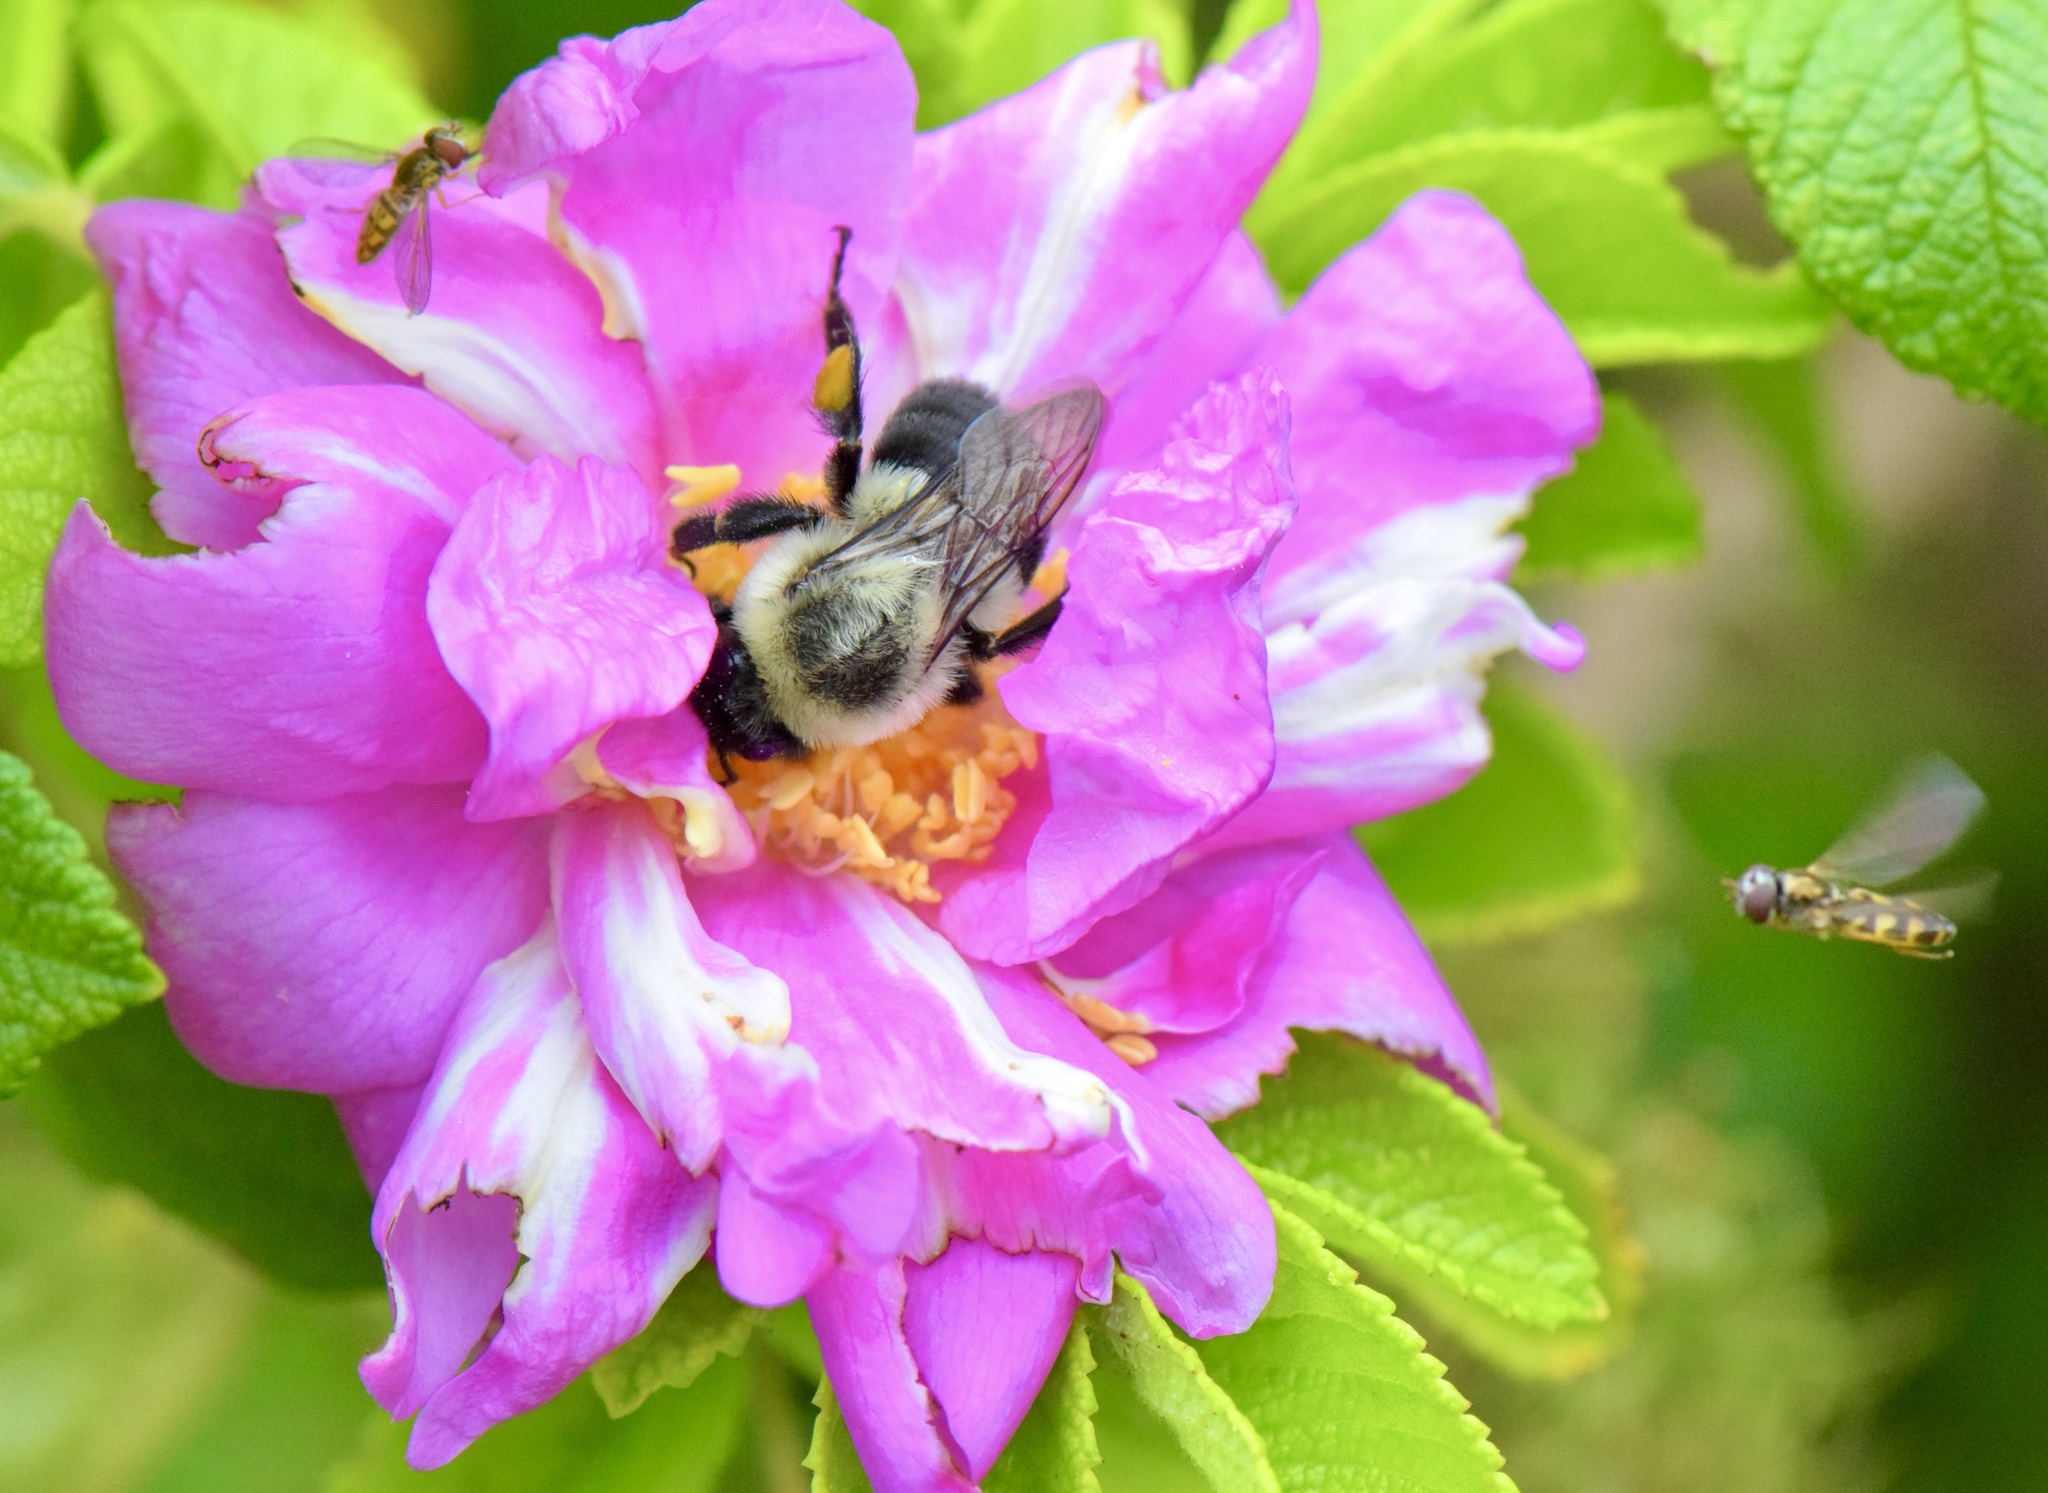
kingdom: Animalia
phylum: Arthropoda
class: Insecta
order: Hymenoptera
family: Apidae
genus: Bombus
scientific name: Bombus impatiens
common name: Common eastern bumble bee
